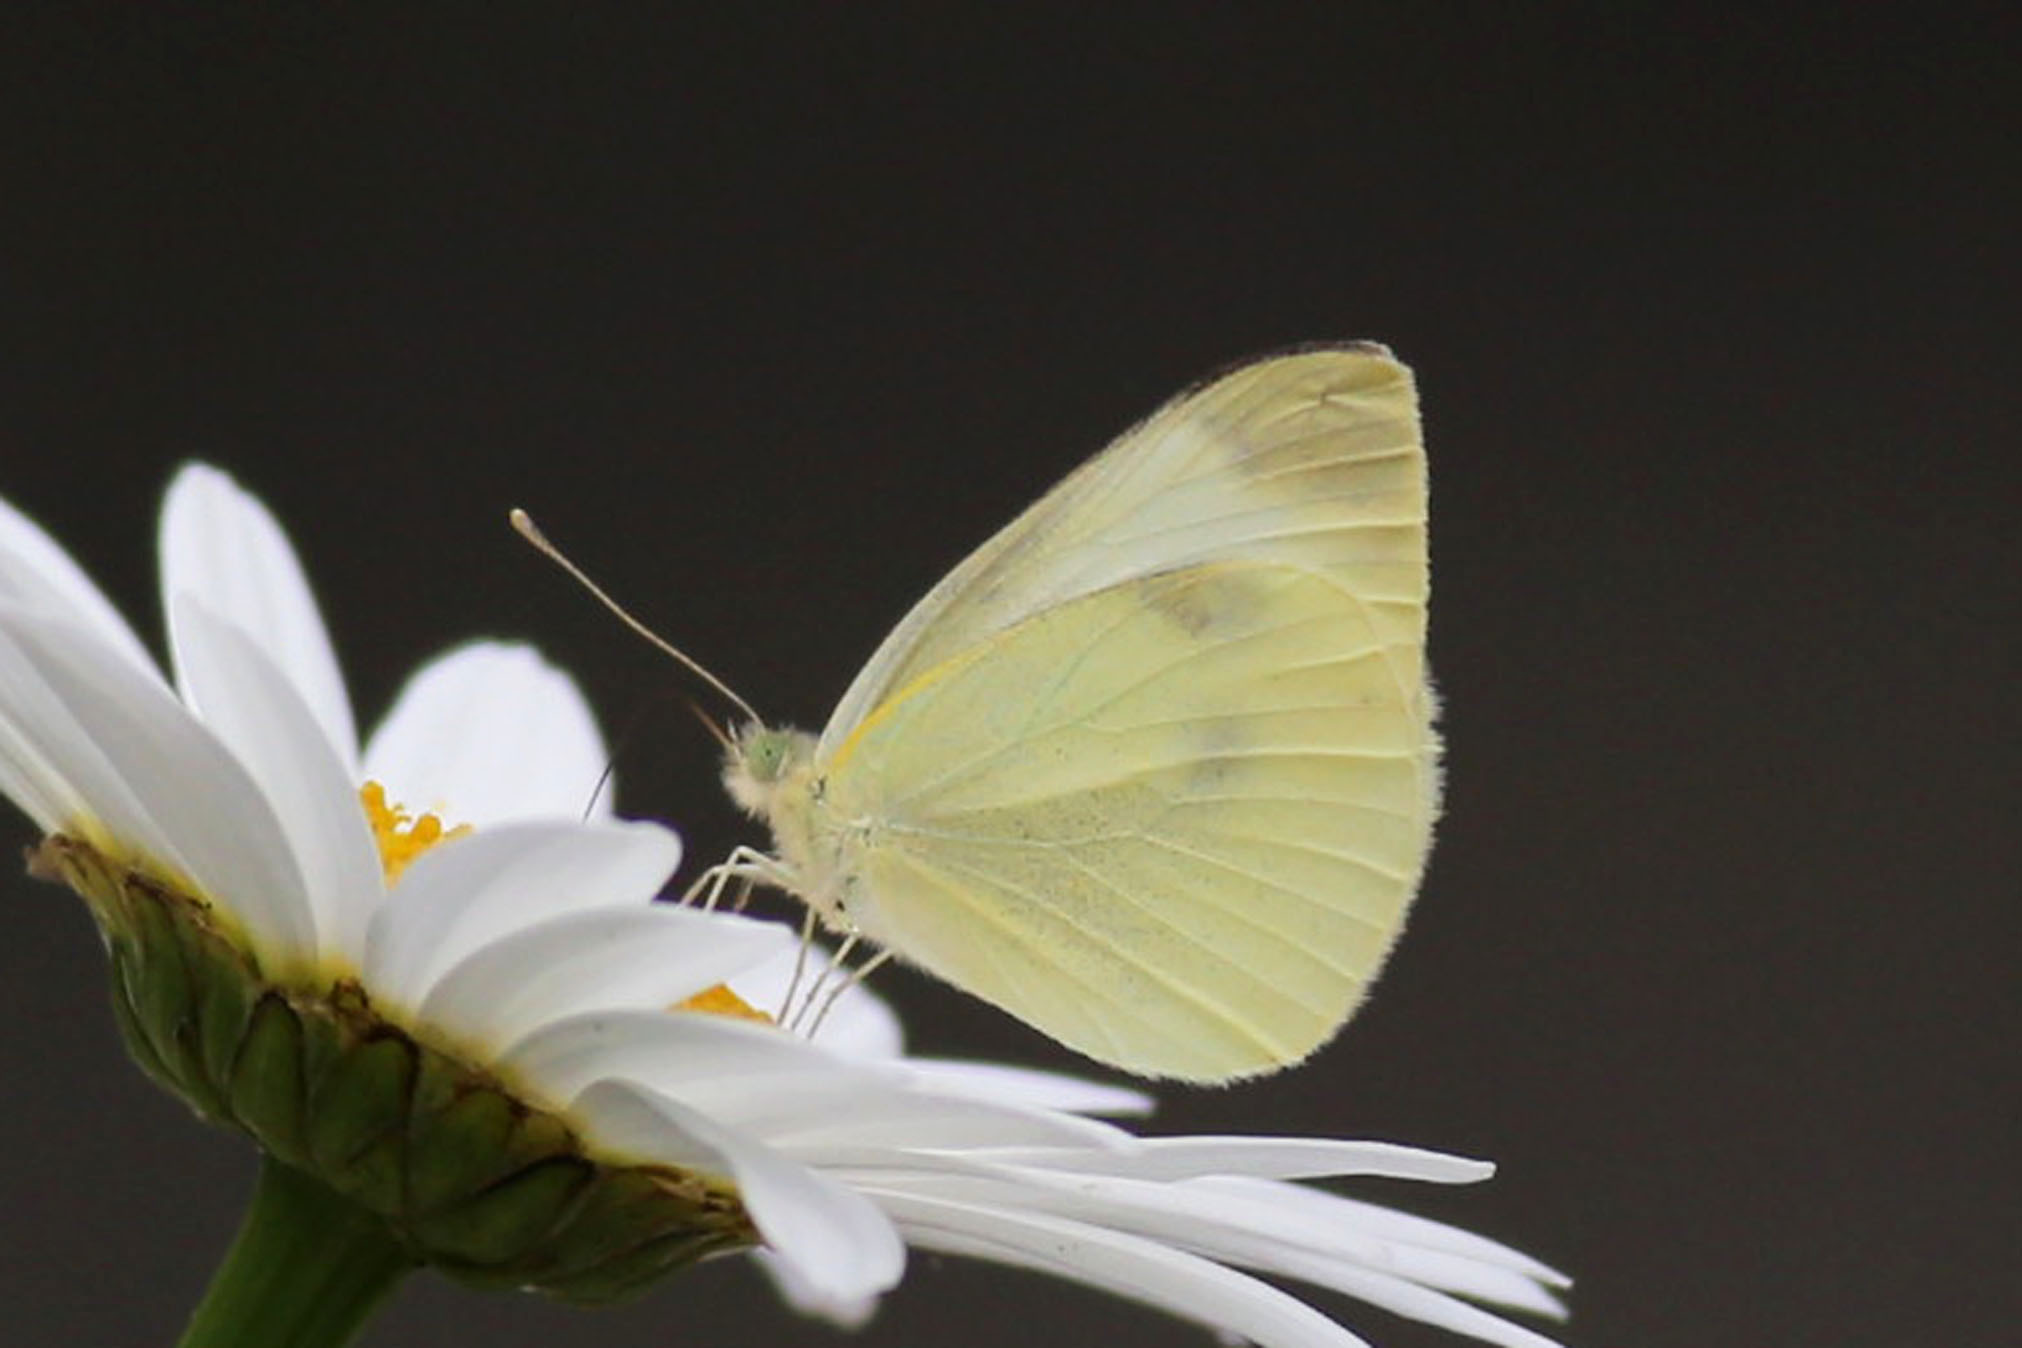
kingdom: Animalia
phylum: Arthropoda
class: Insecta
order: Lepidoptera
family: Pieridae
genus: Pieris
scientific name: Pieris rapae
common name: Small white
